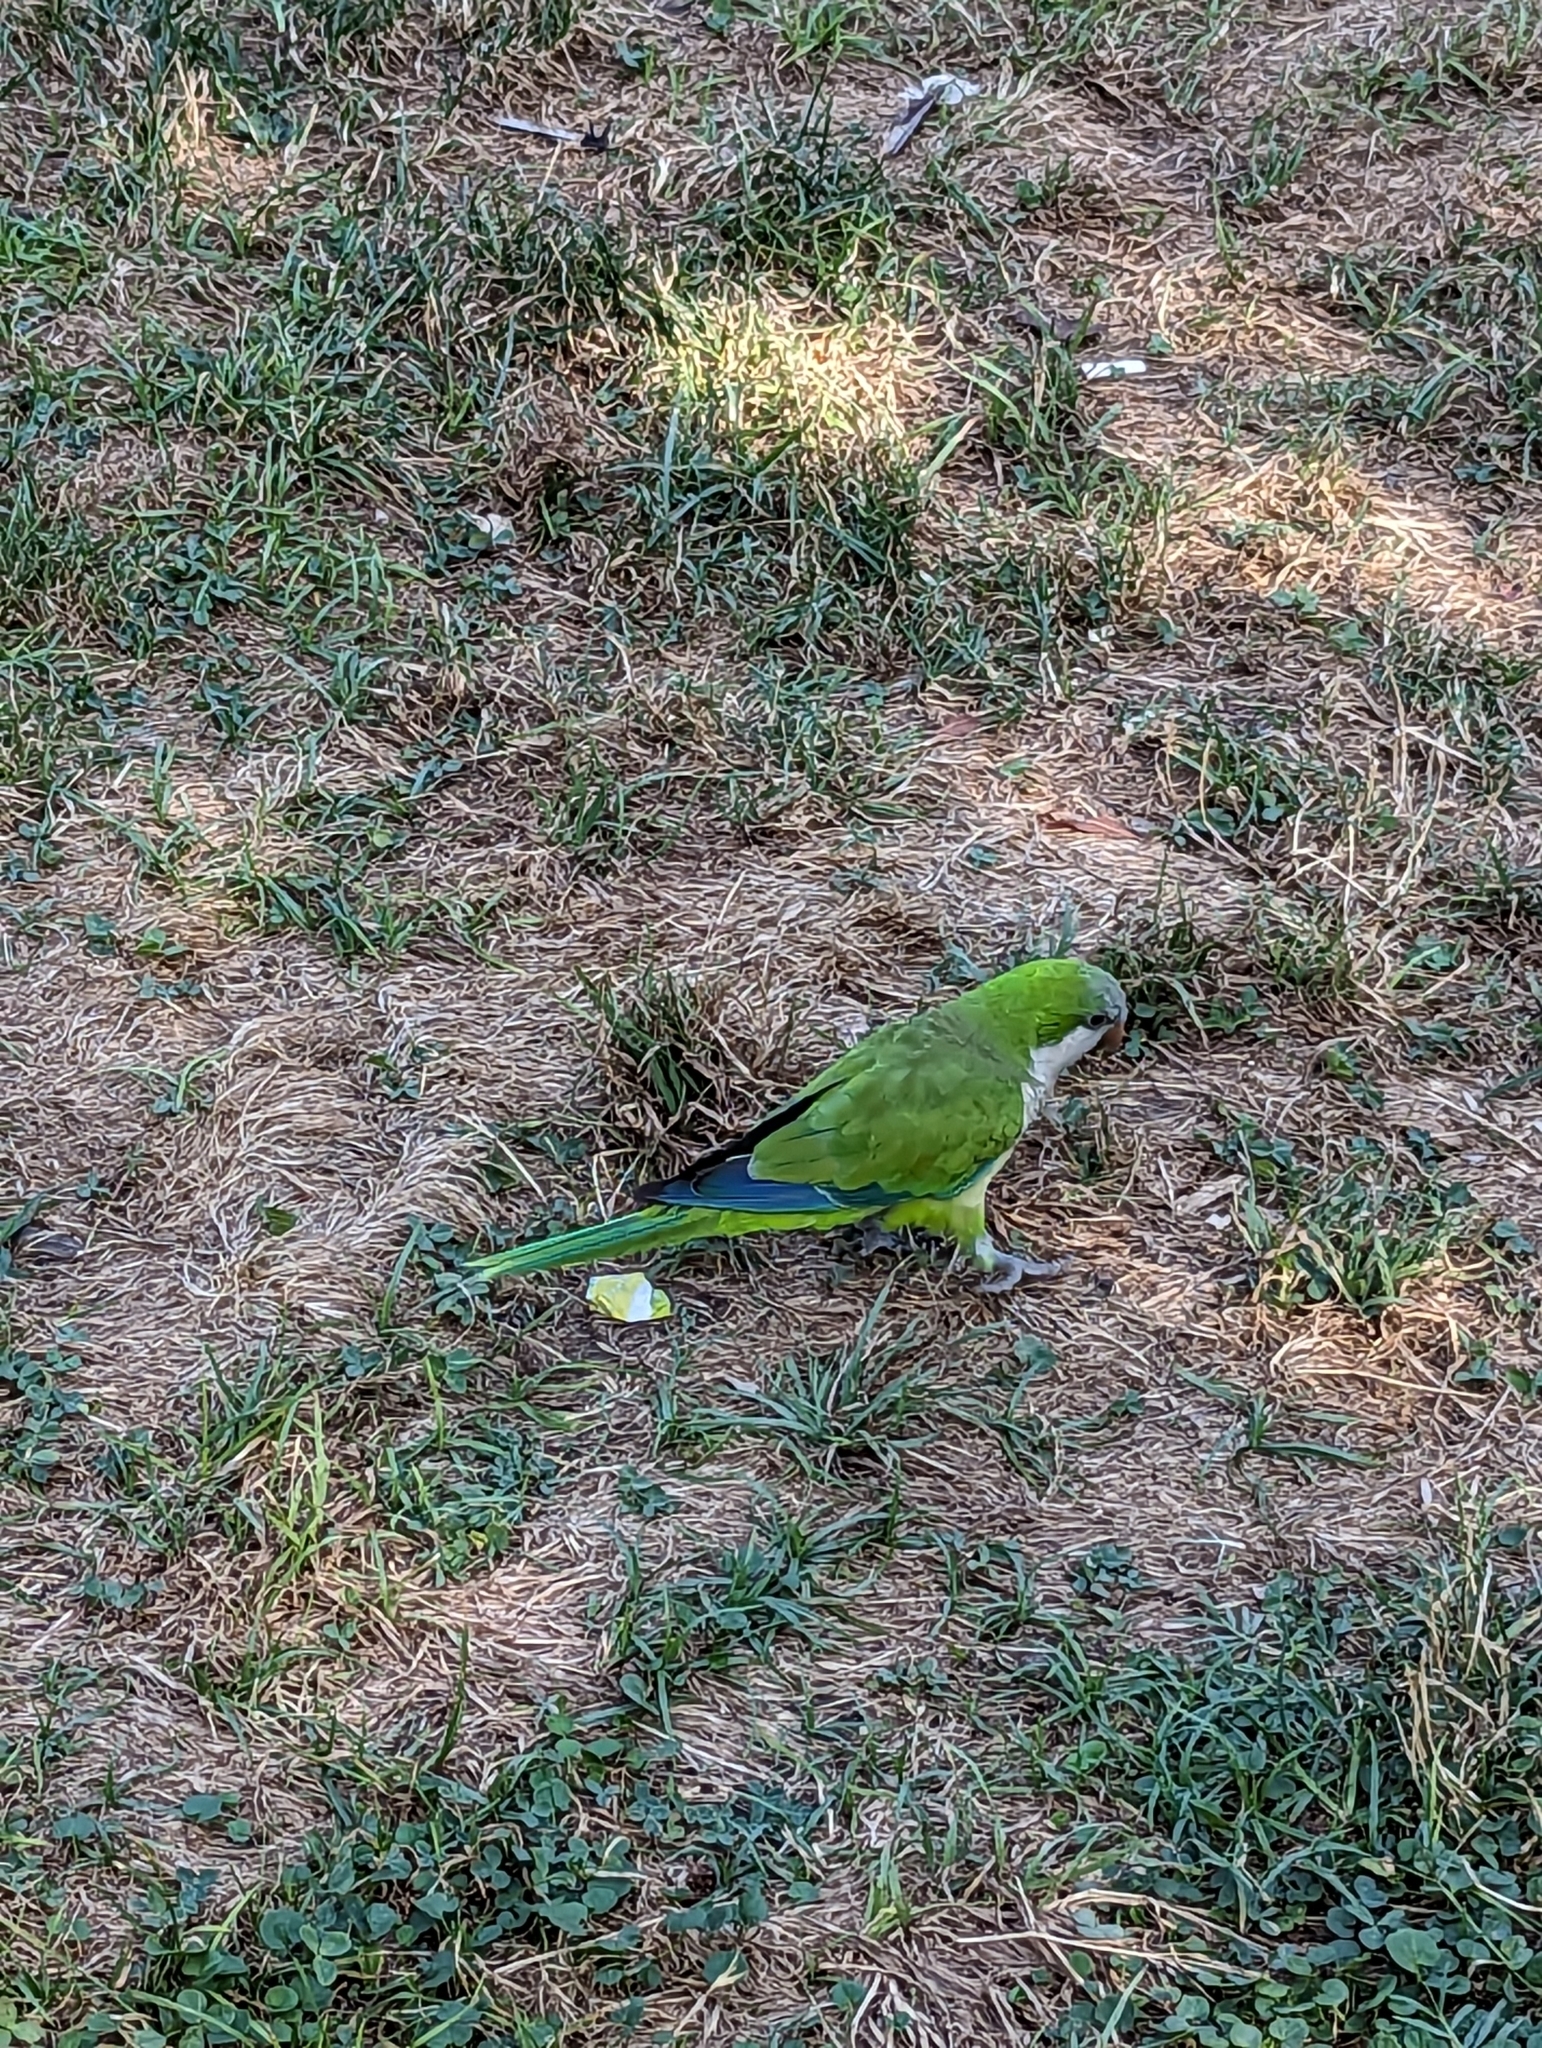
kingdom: Animalia
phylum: Chordata
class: Aves
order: Psittaciformes
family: Psittacidae
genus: Myiopsitta
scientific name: Myiopsitta monachus
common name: Monk parakeet
